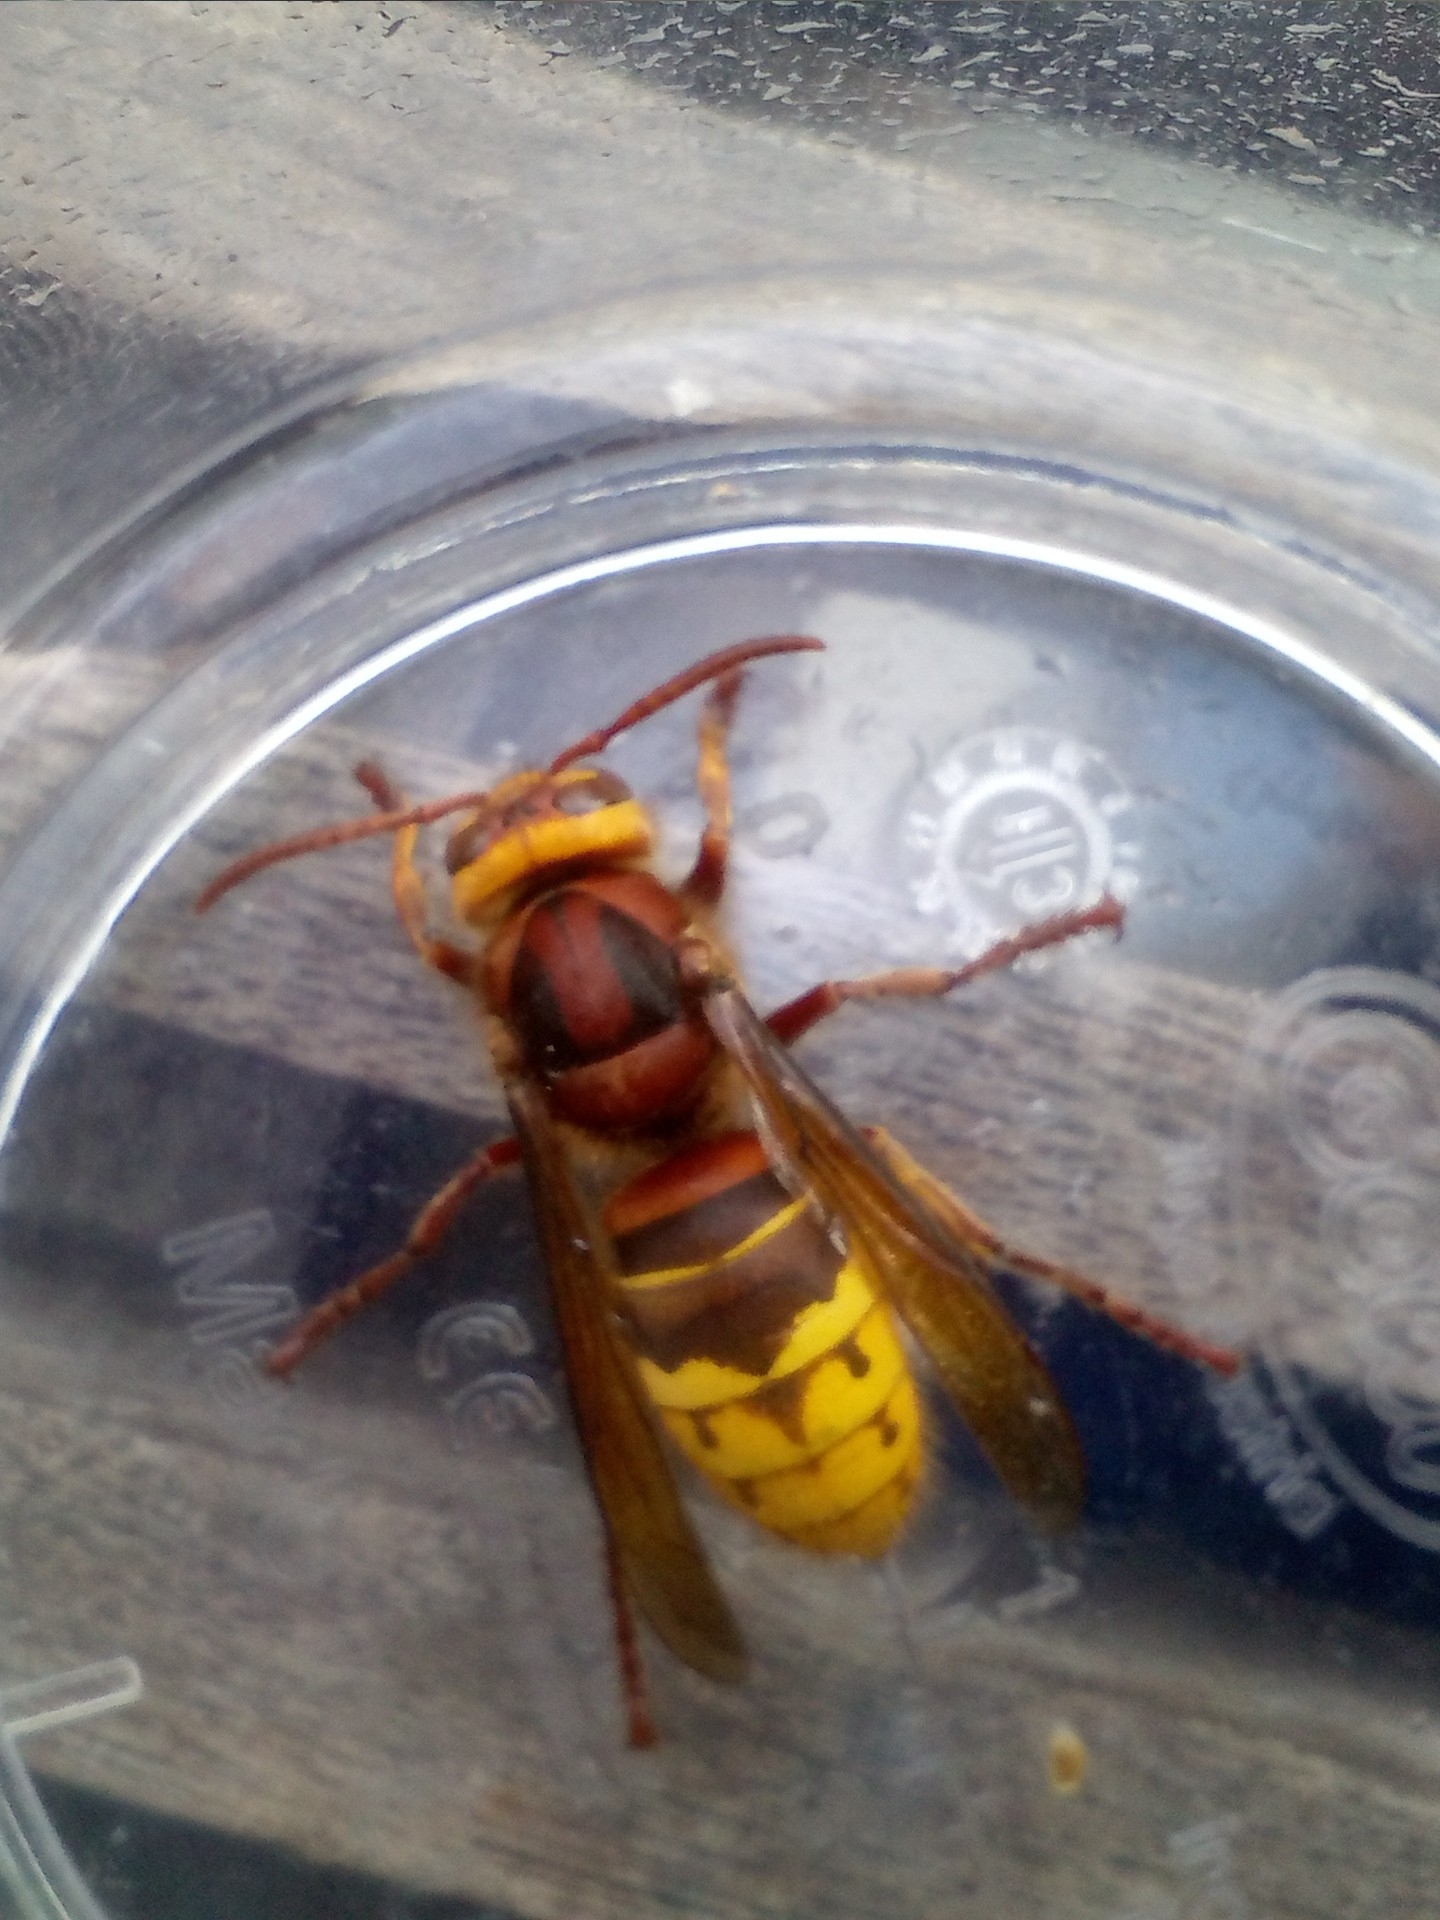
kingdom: Animalia
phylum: Arthropoda
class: Insecta
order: Hymenoptera
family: Vespidae
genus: Vespa
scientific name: Vespa crabro
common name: Hornet
